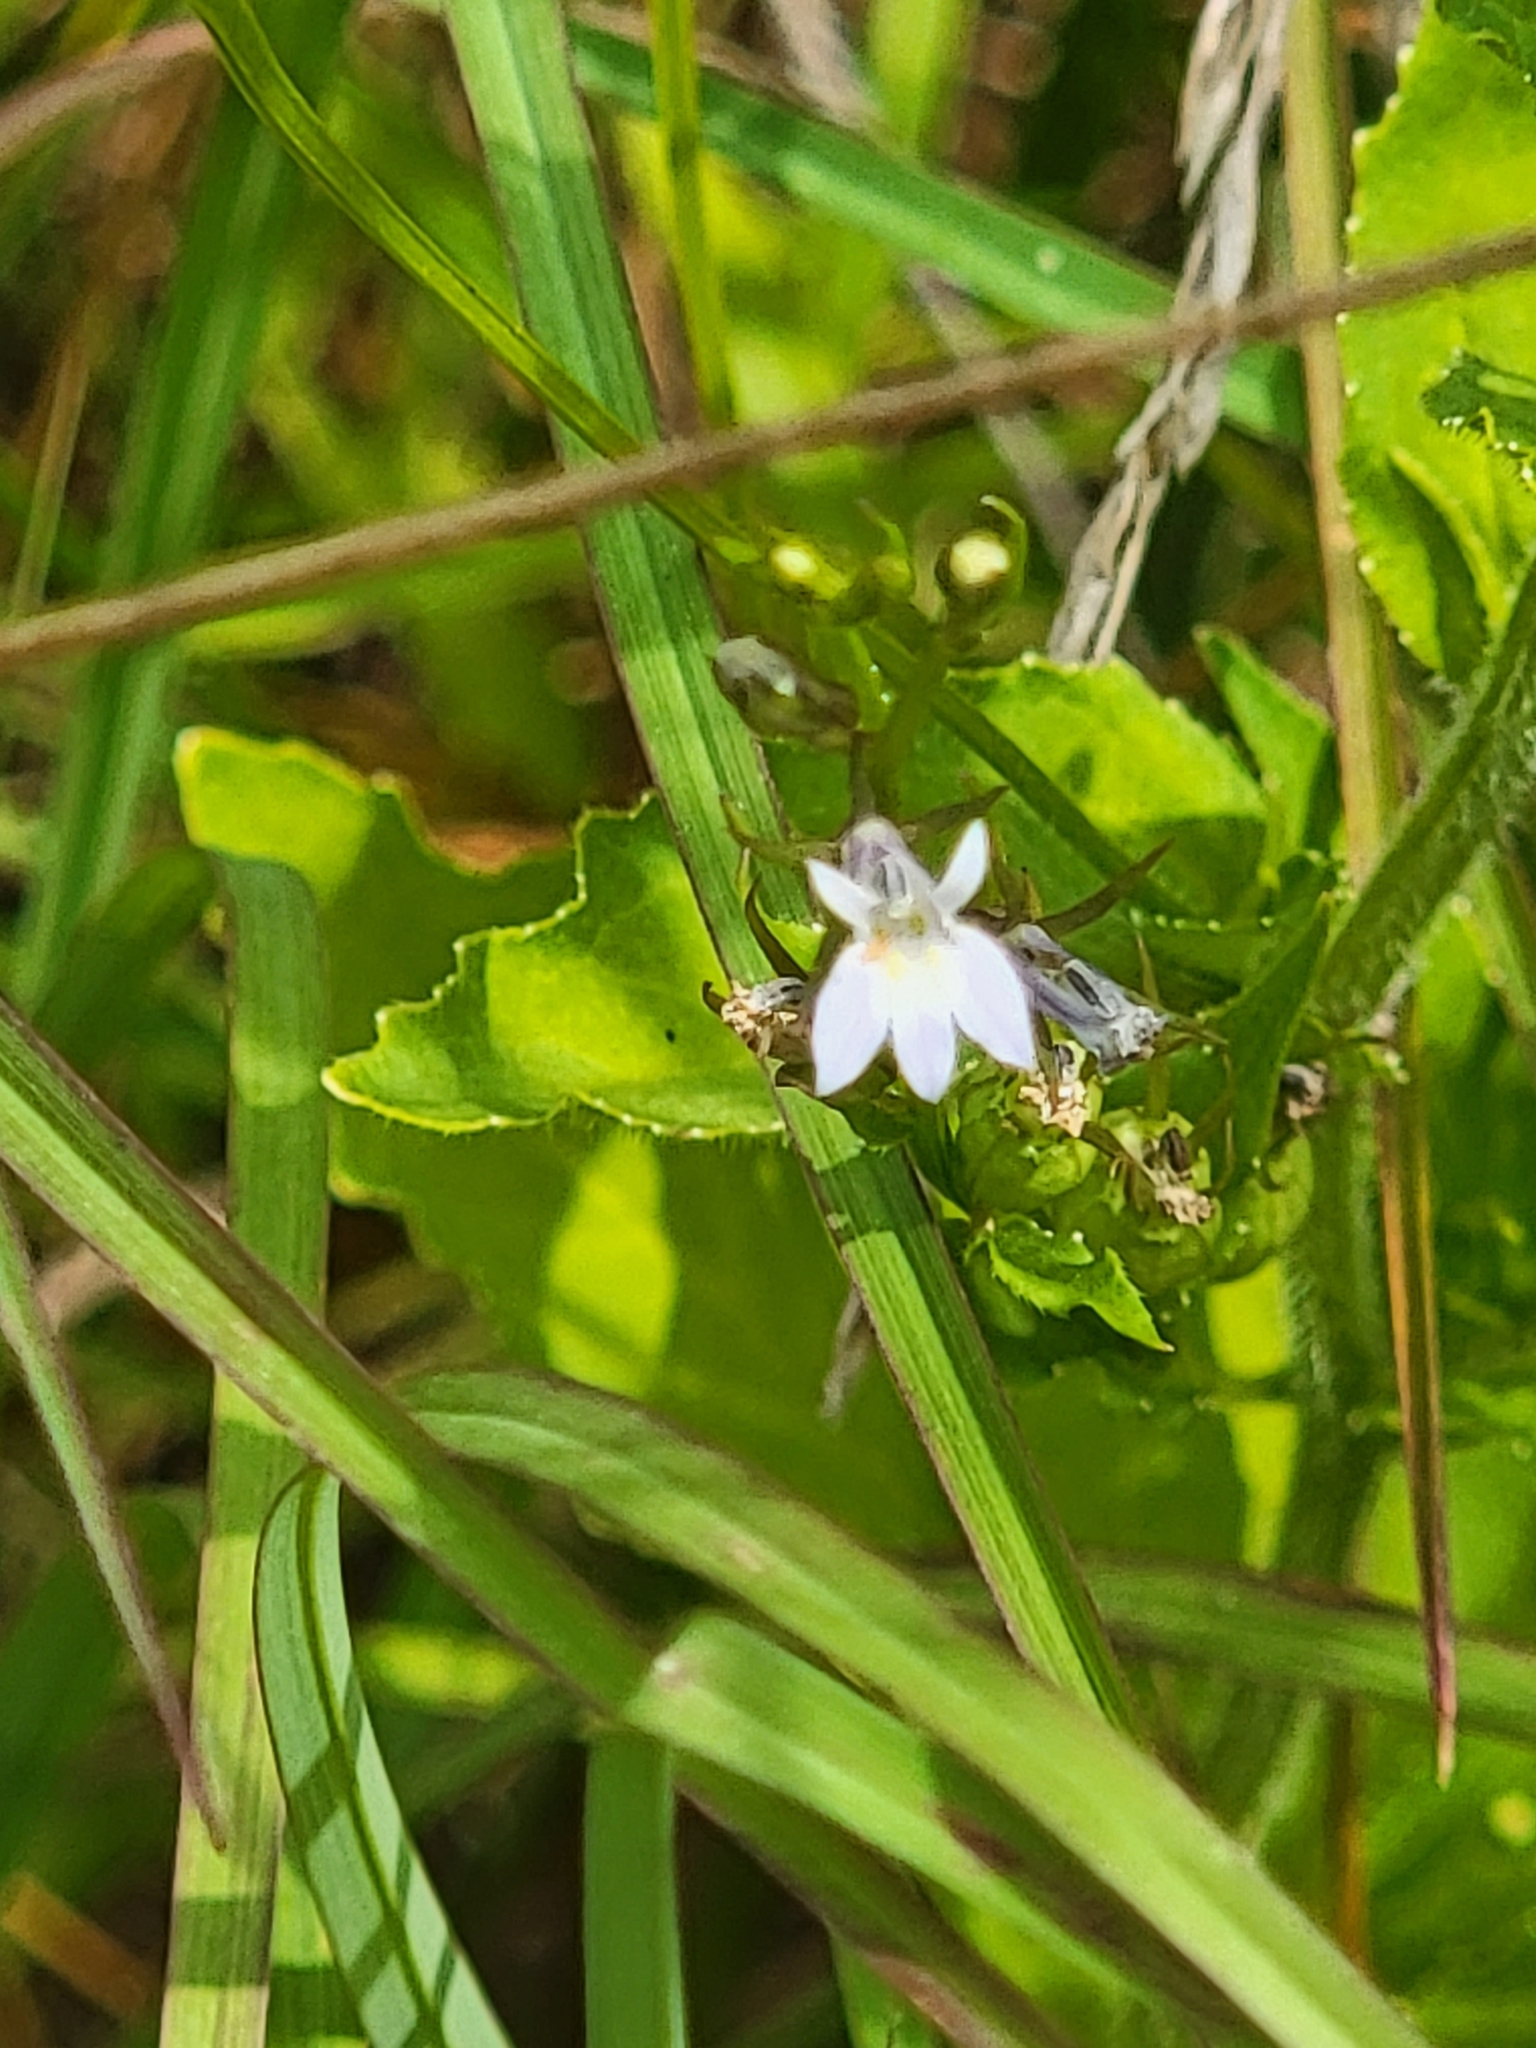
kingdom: Plantae
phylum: Tracheophyta
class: Magnoliopsida
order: Asterales
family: Campanulaceae
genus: Lobelia
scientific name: Lobelia inflata
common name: Indian tobacco
